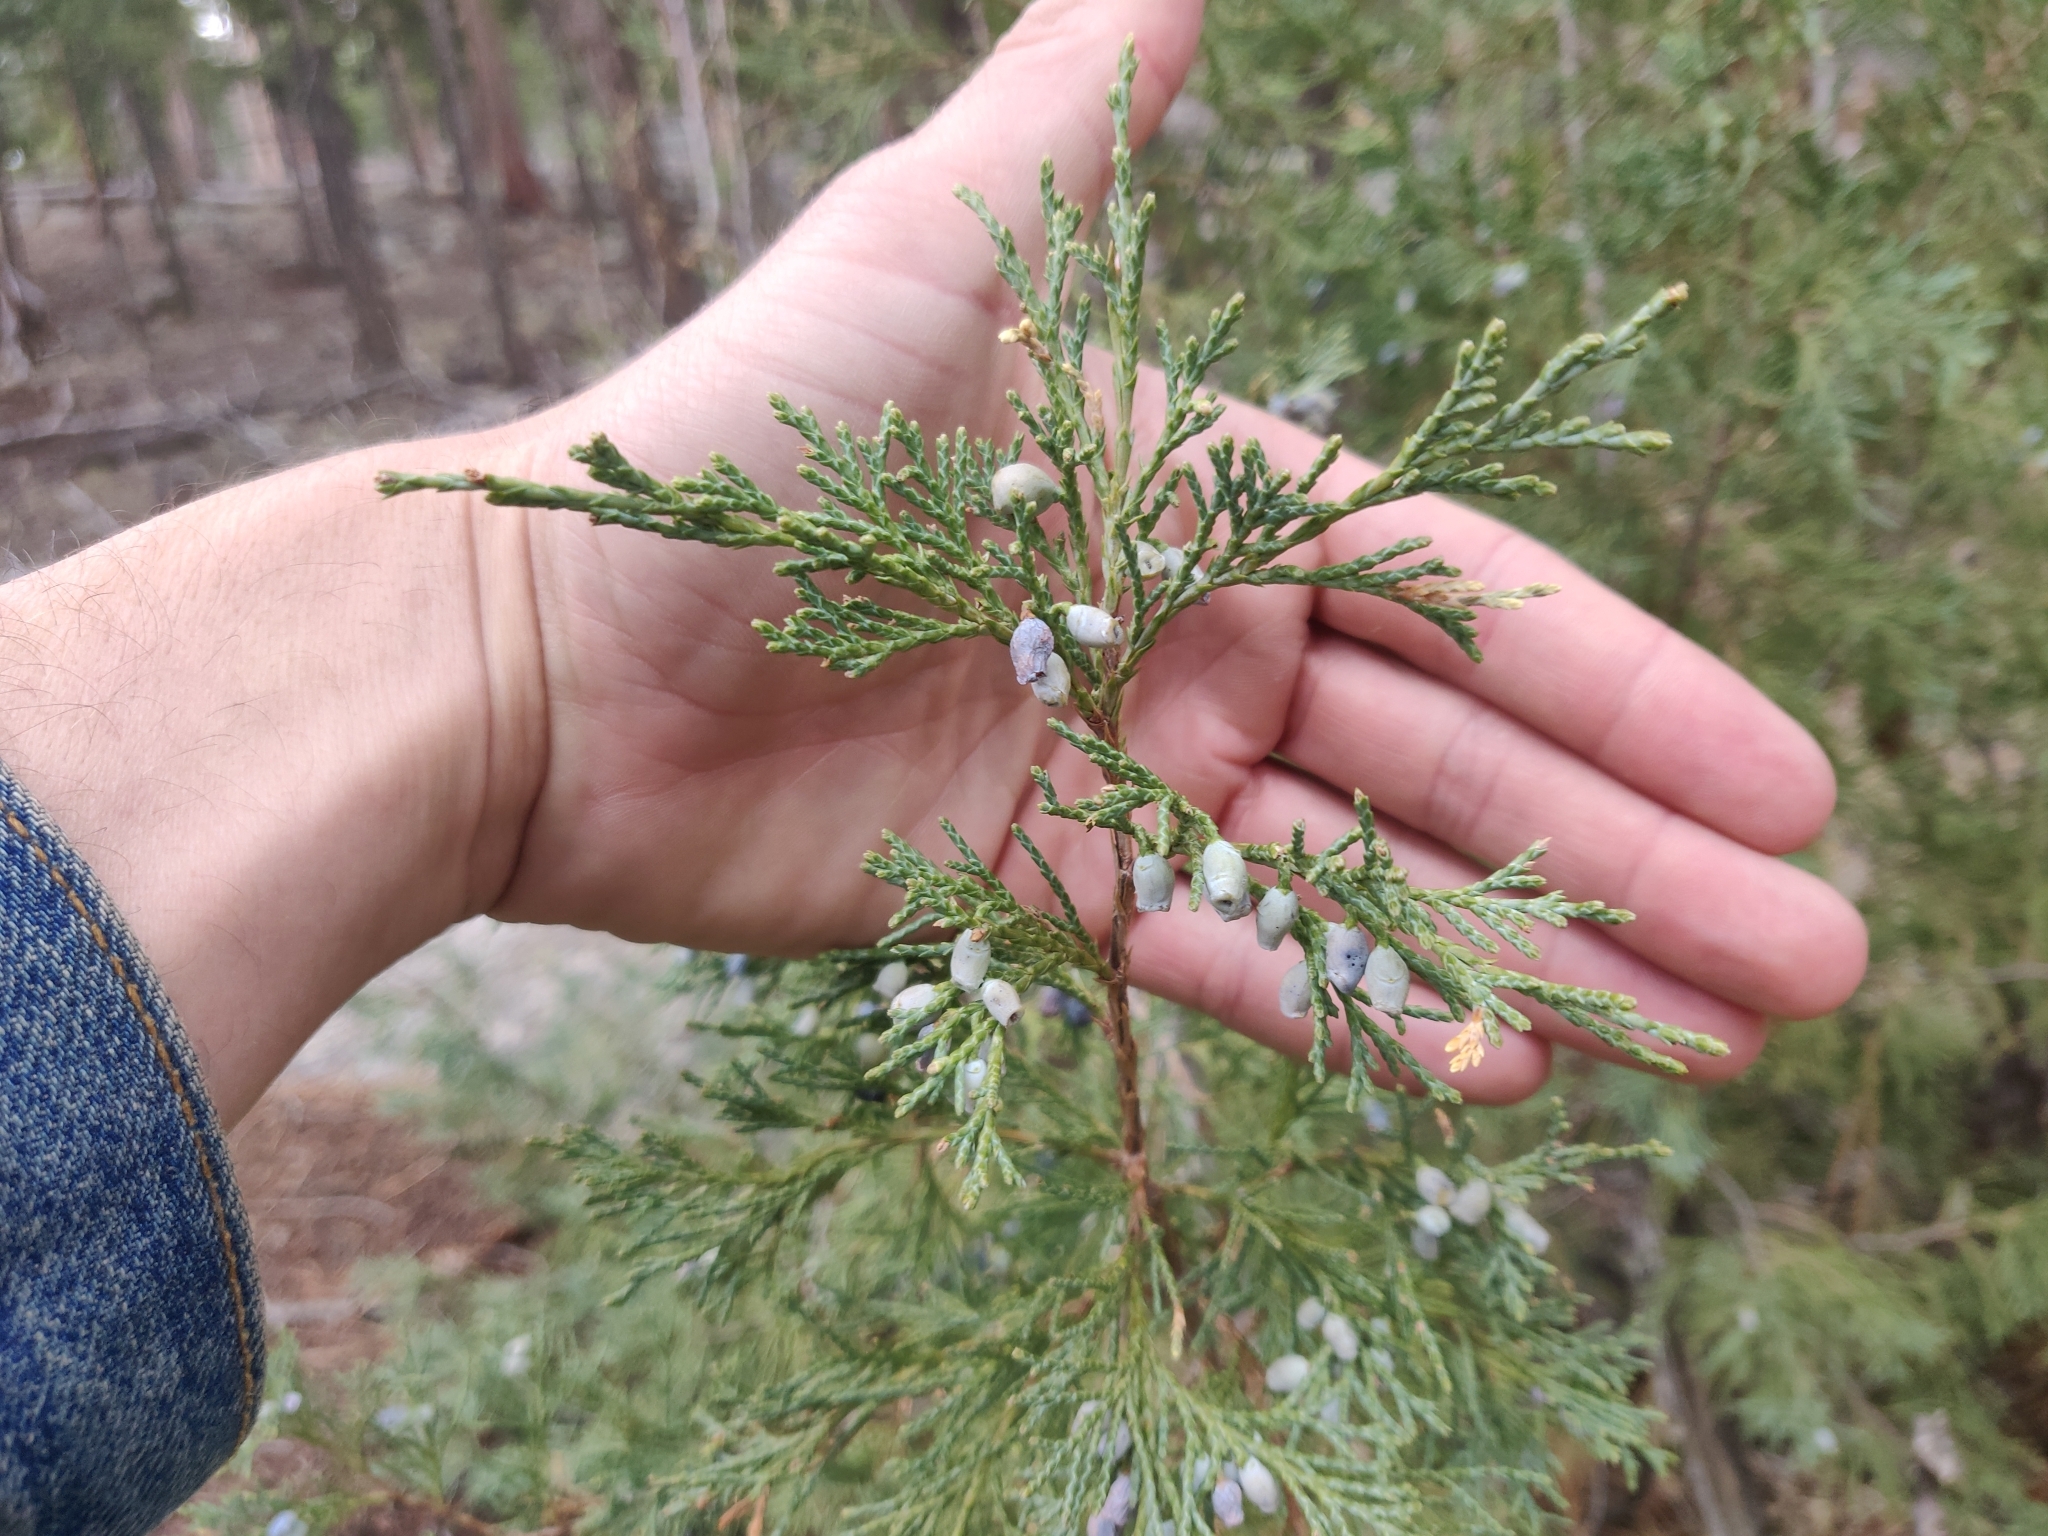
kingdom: Plantae
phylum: Tracheophyta
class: Pinopsida
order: Pinales
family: Cupressaceae
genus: Juniperus
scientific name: Juniperus scopulorum
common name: Rocky mountain juniper
